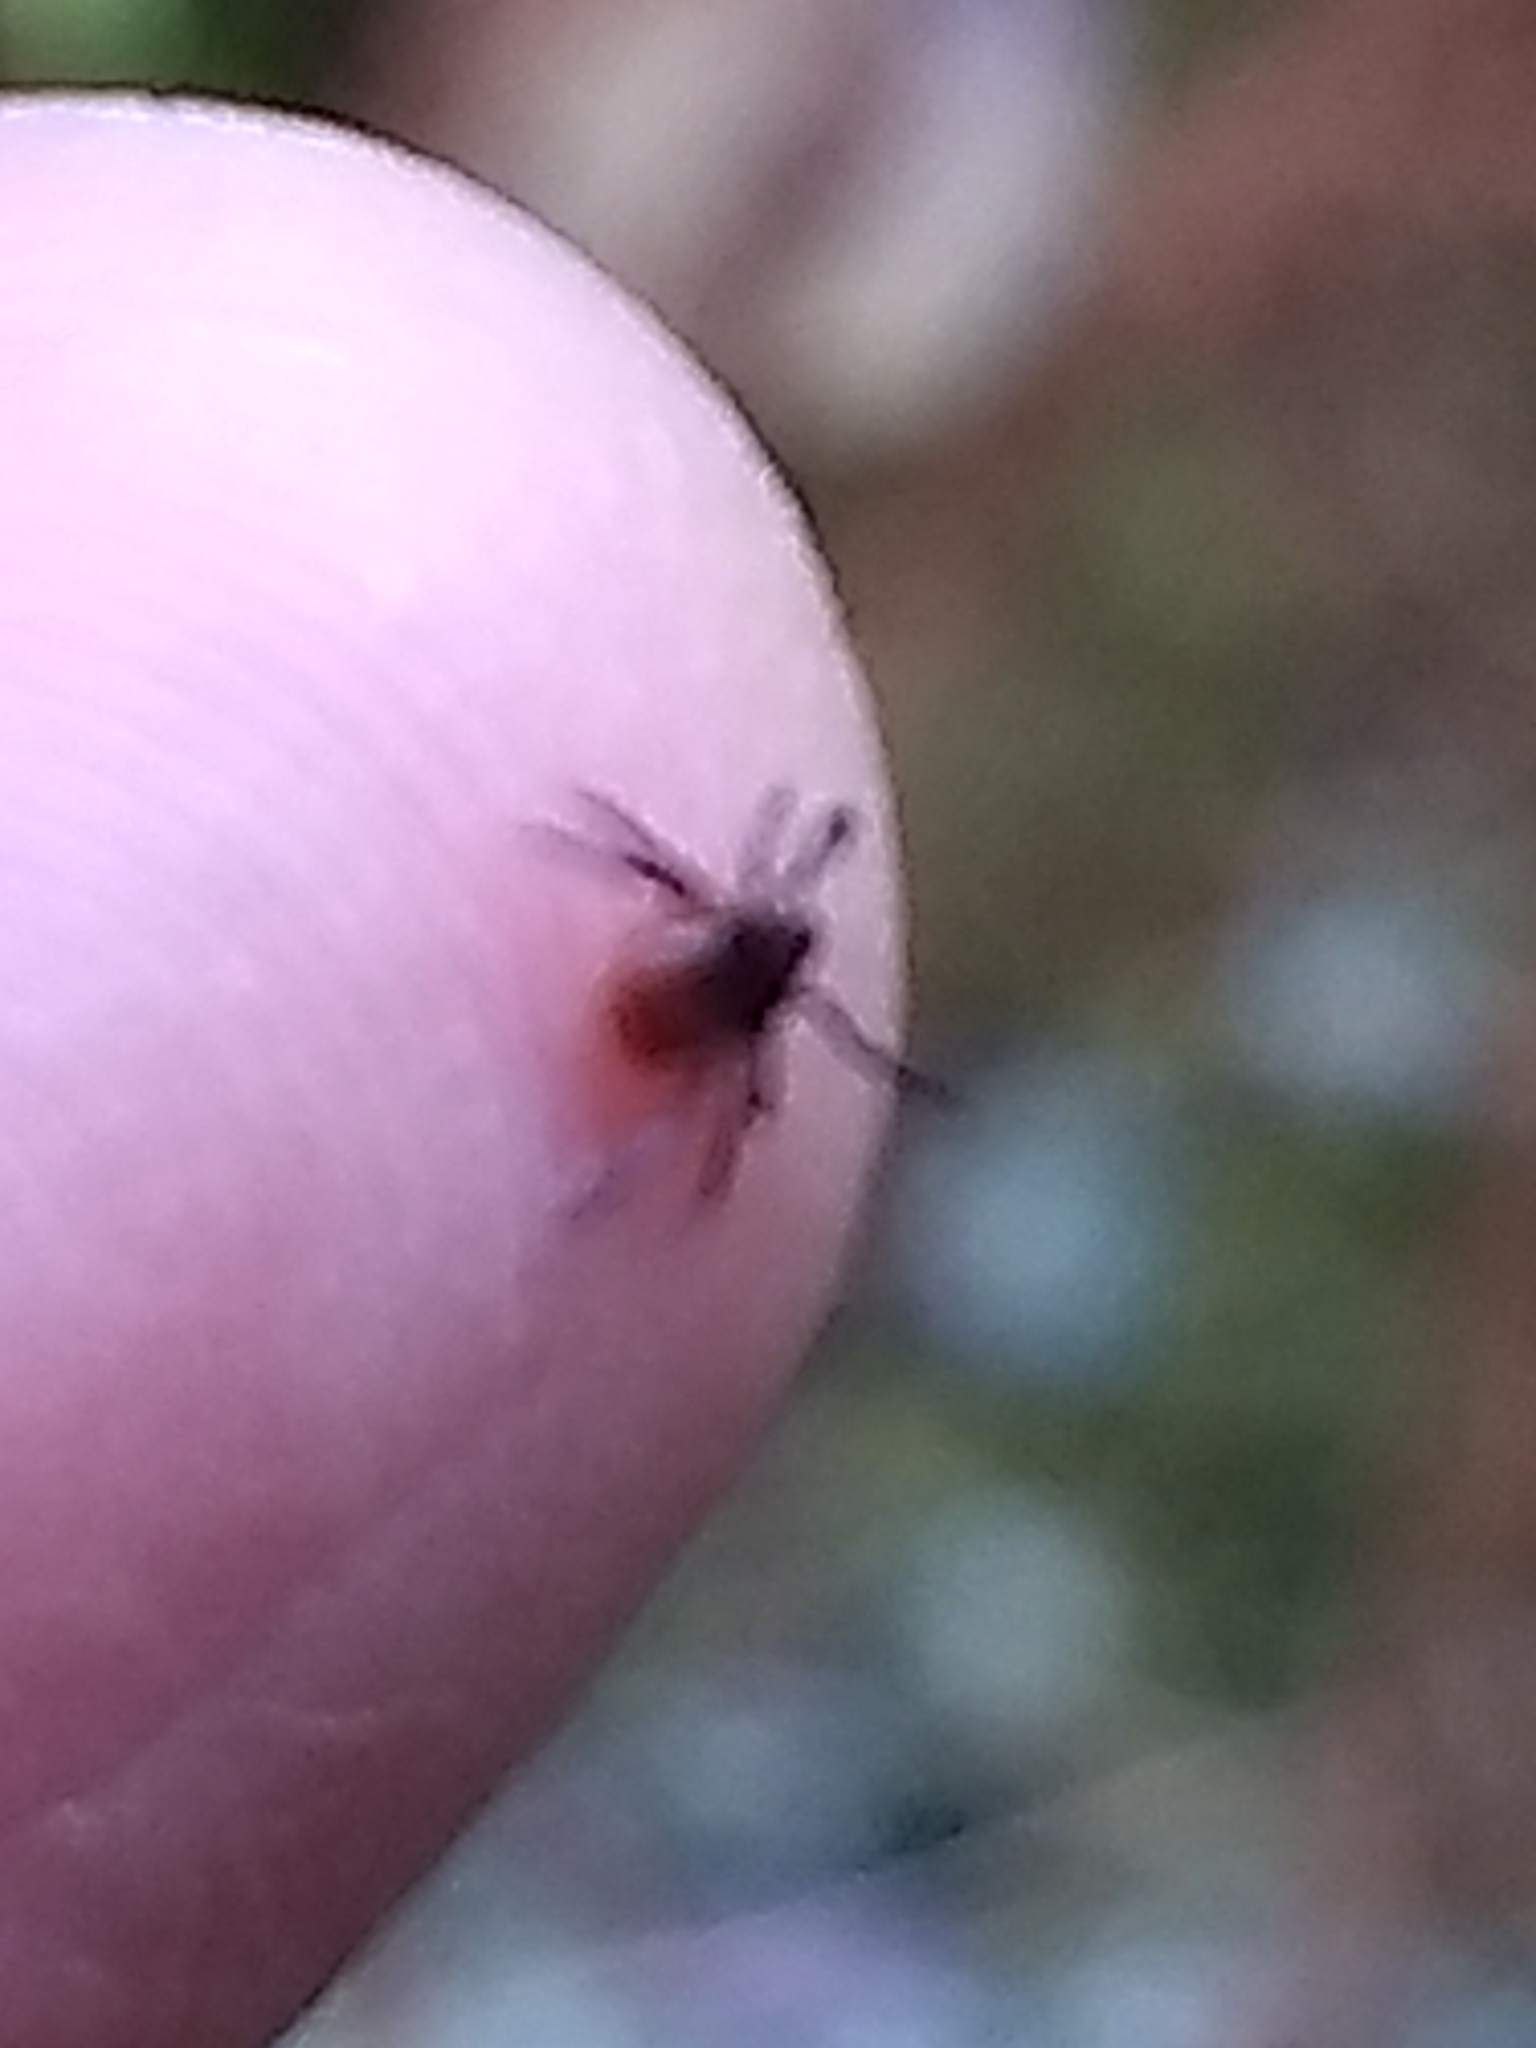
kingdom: Animalia
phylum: Arthropoda
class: Arachnida
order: Ixodida
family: Ixodidae
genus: Ixodes
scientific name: Ixodes scapularis
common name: Black legged tick
